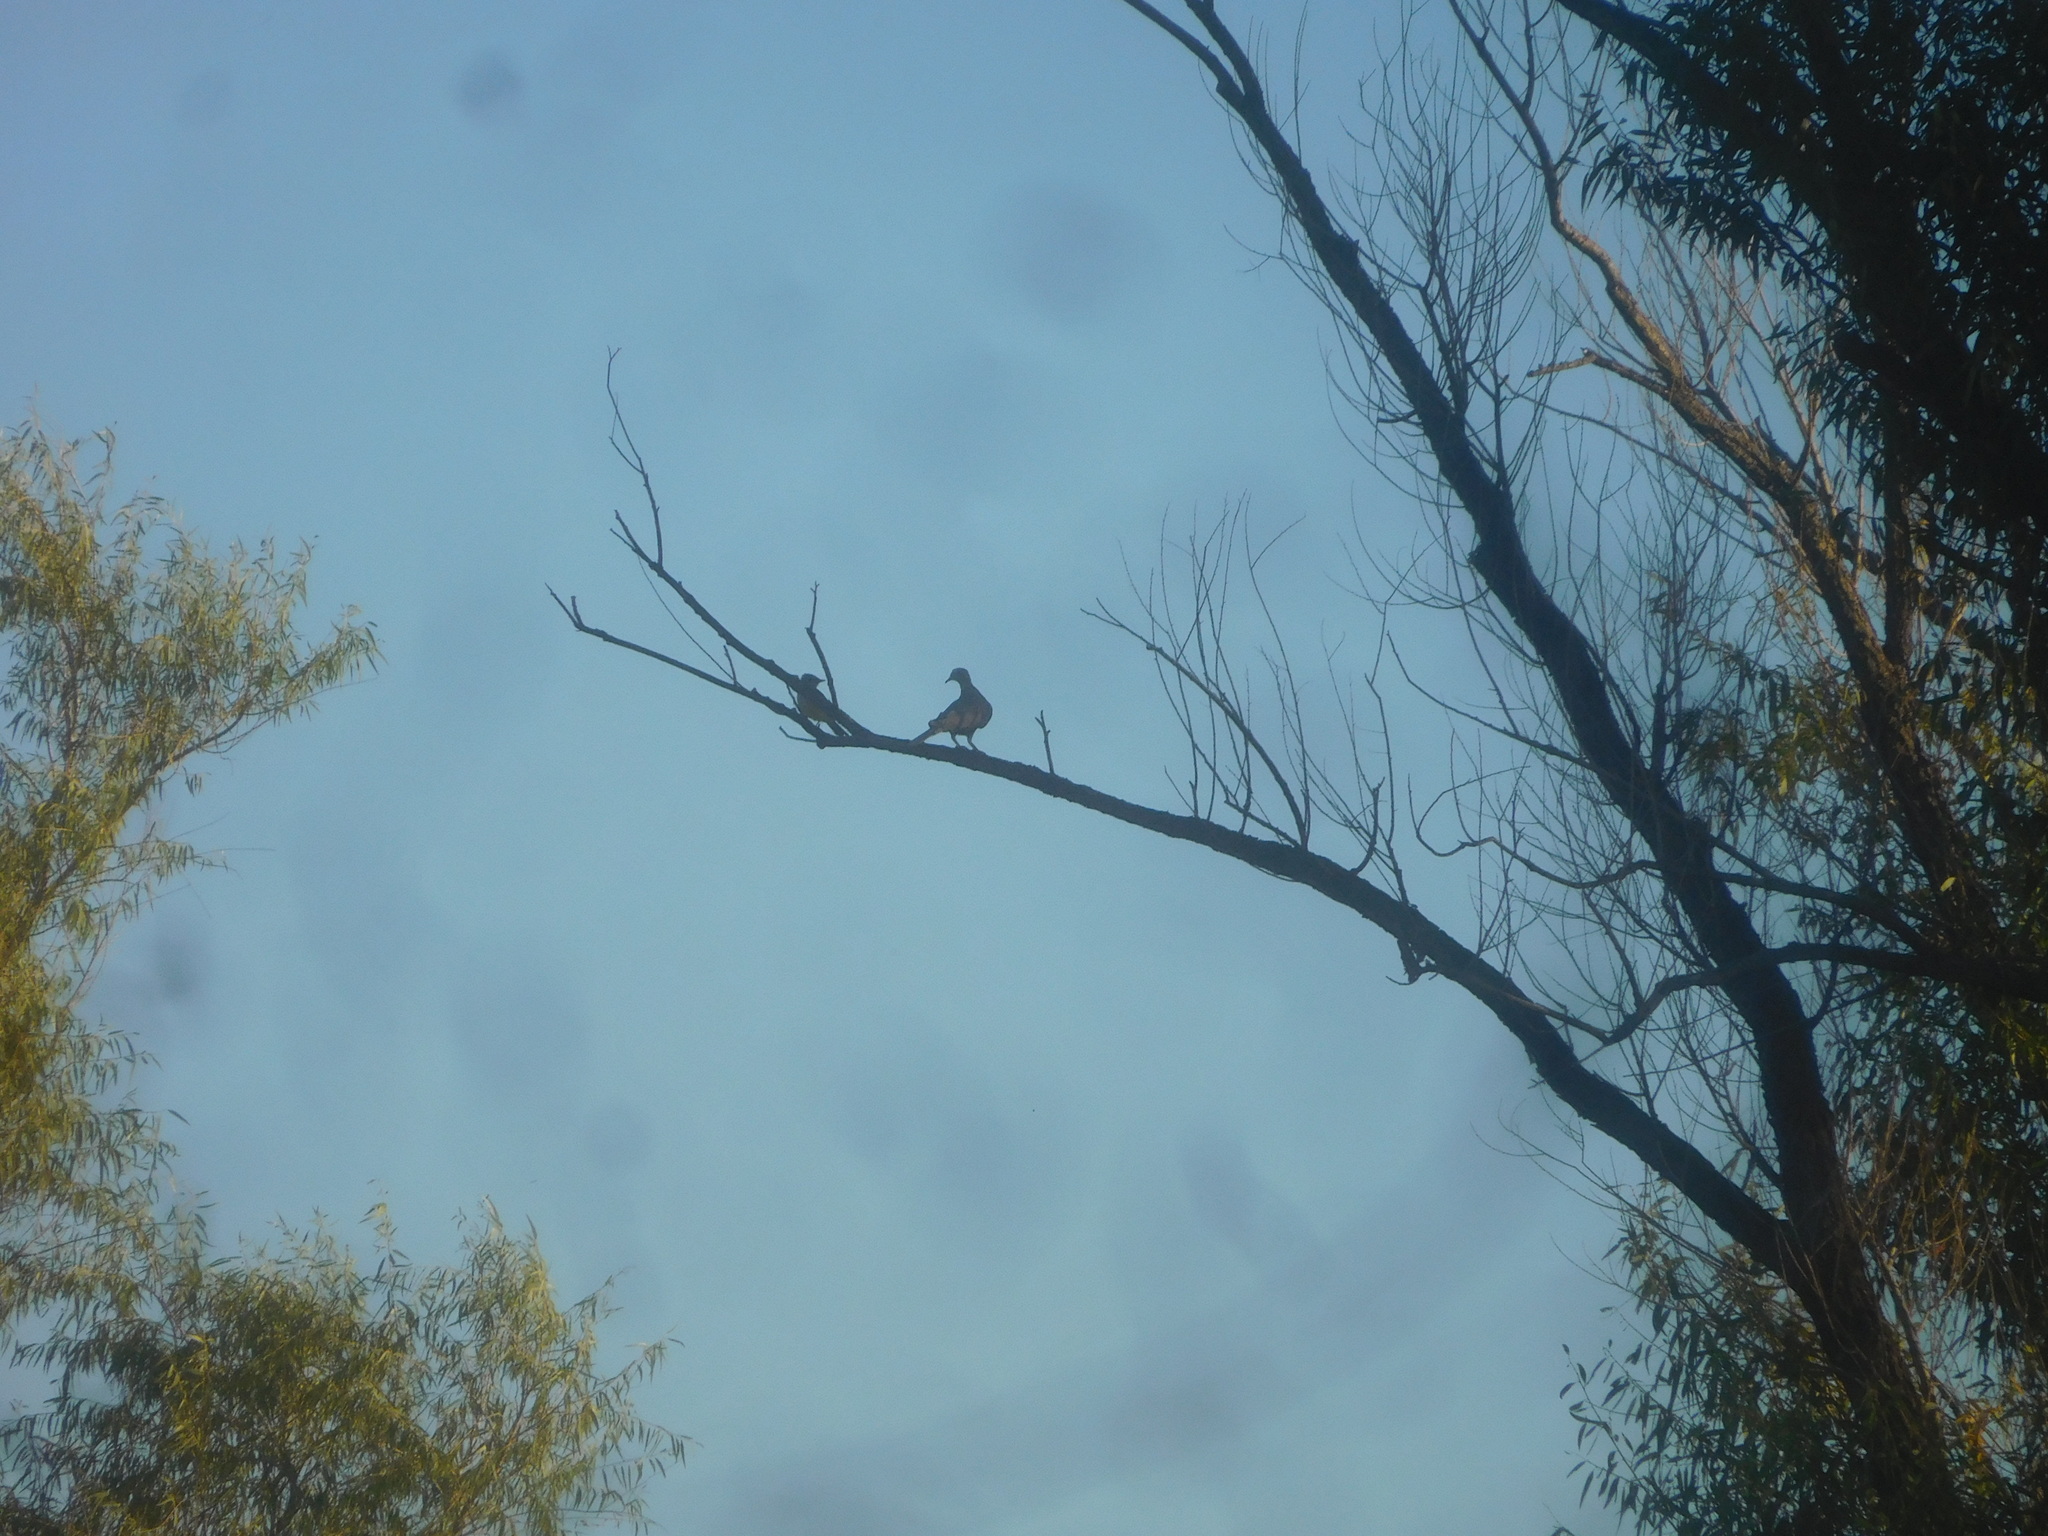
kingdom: Animalia
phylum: Chordata
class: Aves
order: Columbiformes
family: Columbidae
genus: Zenaida
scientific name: Zenaida macroura
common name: Mourning dove
